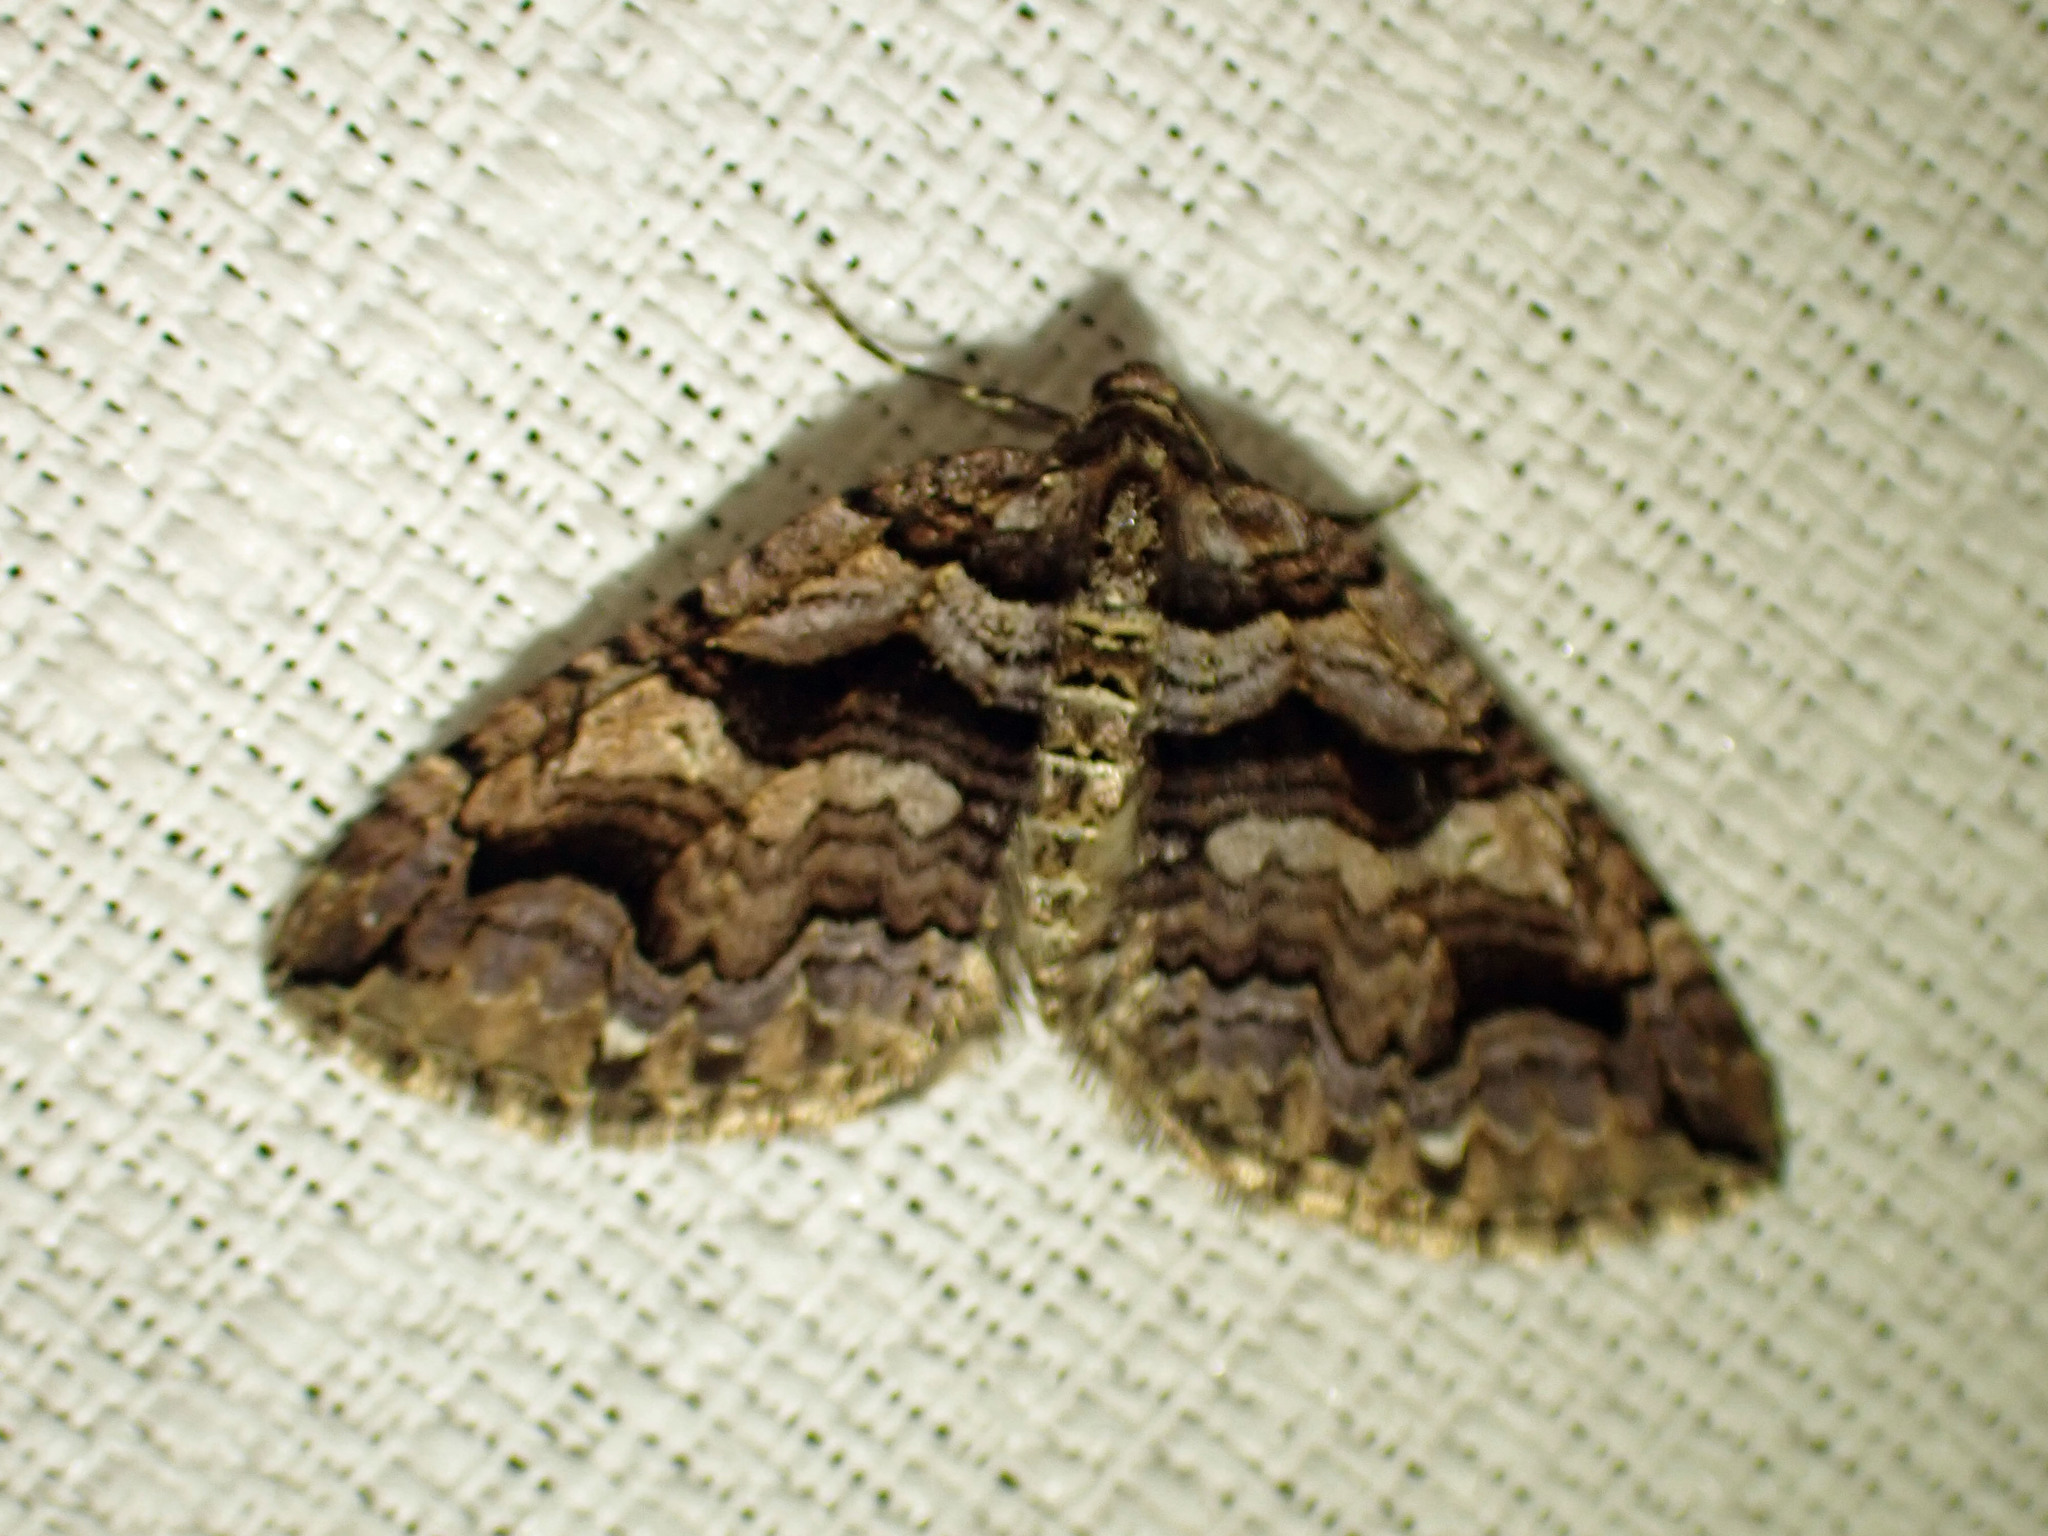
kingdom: Animalia
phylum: Arthropoda
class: Insecta
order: Lepidoptera
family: Geometridae
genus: Anticlea
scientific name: Anticlea vasiliata
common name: Variable carpet
